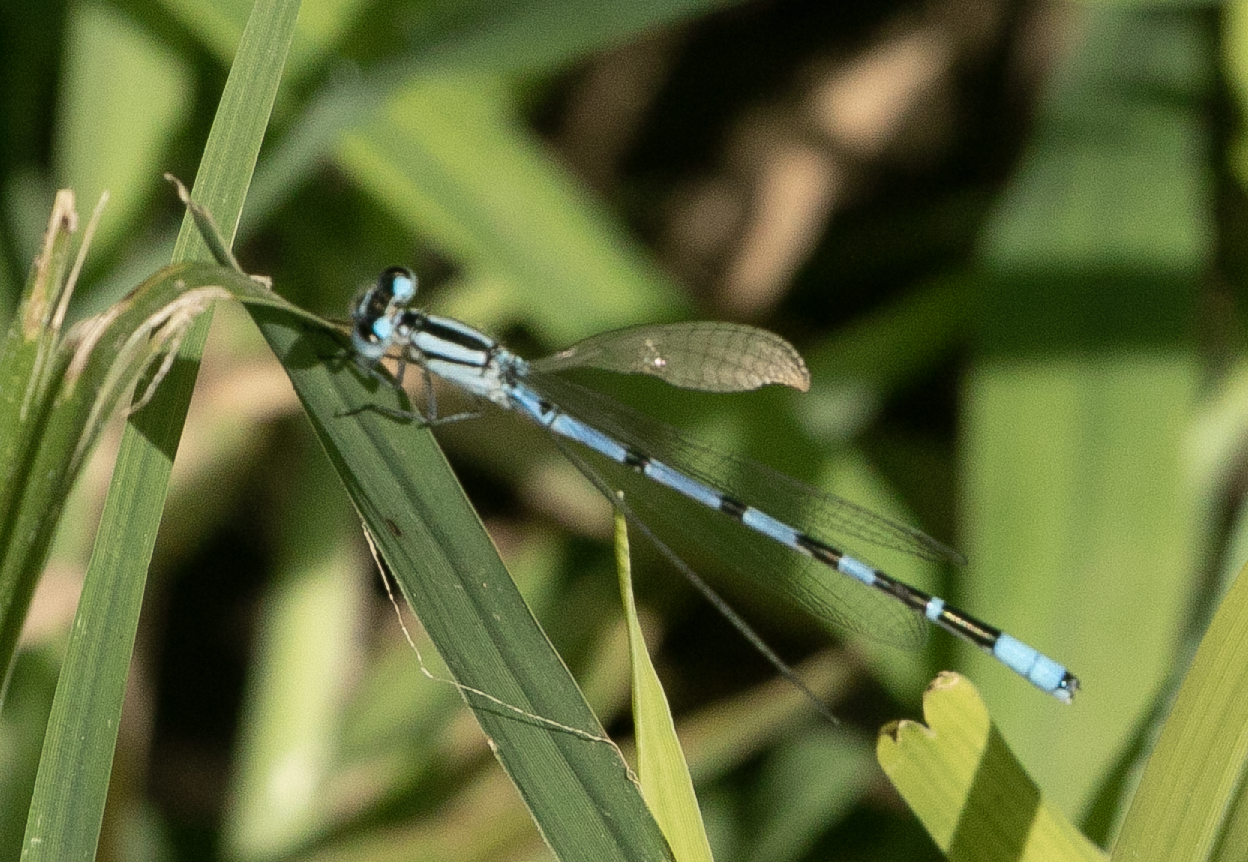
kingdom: Animalia
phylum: Arthropoda
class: Insecta
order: Odonata
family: Coenagrionidae
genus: Enallagma
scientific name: Enallagma cyathigerum
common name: Common blue damselfly
